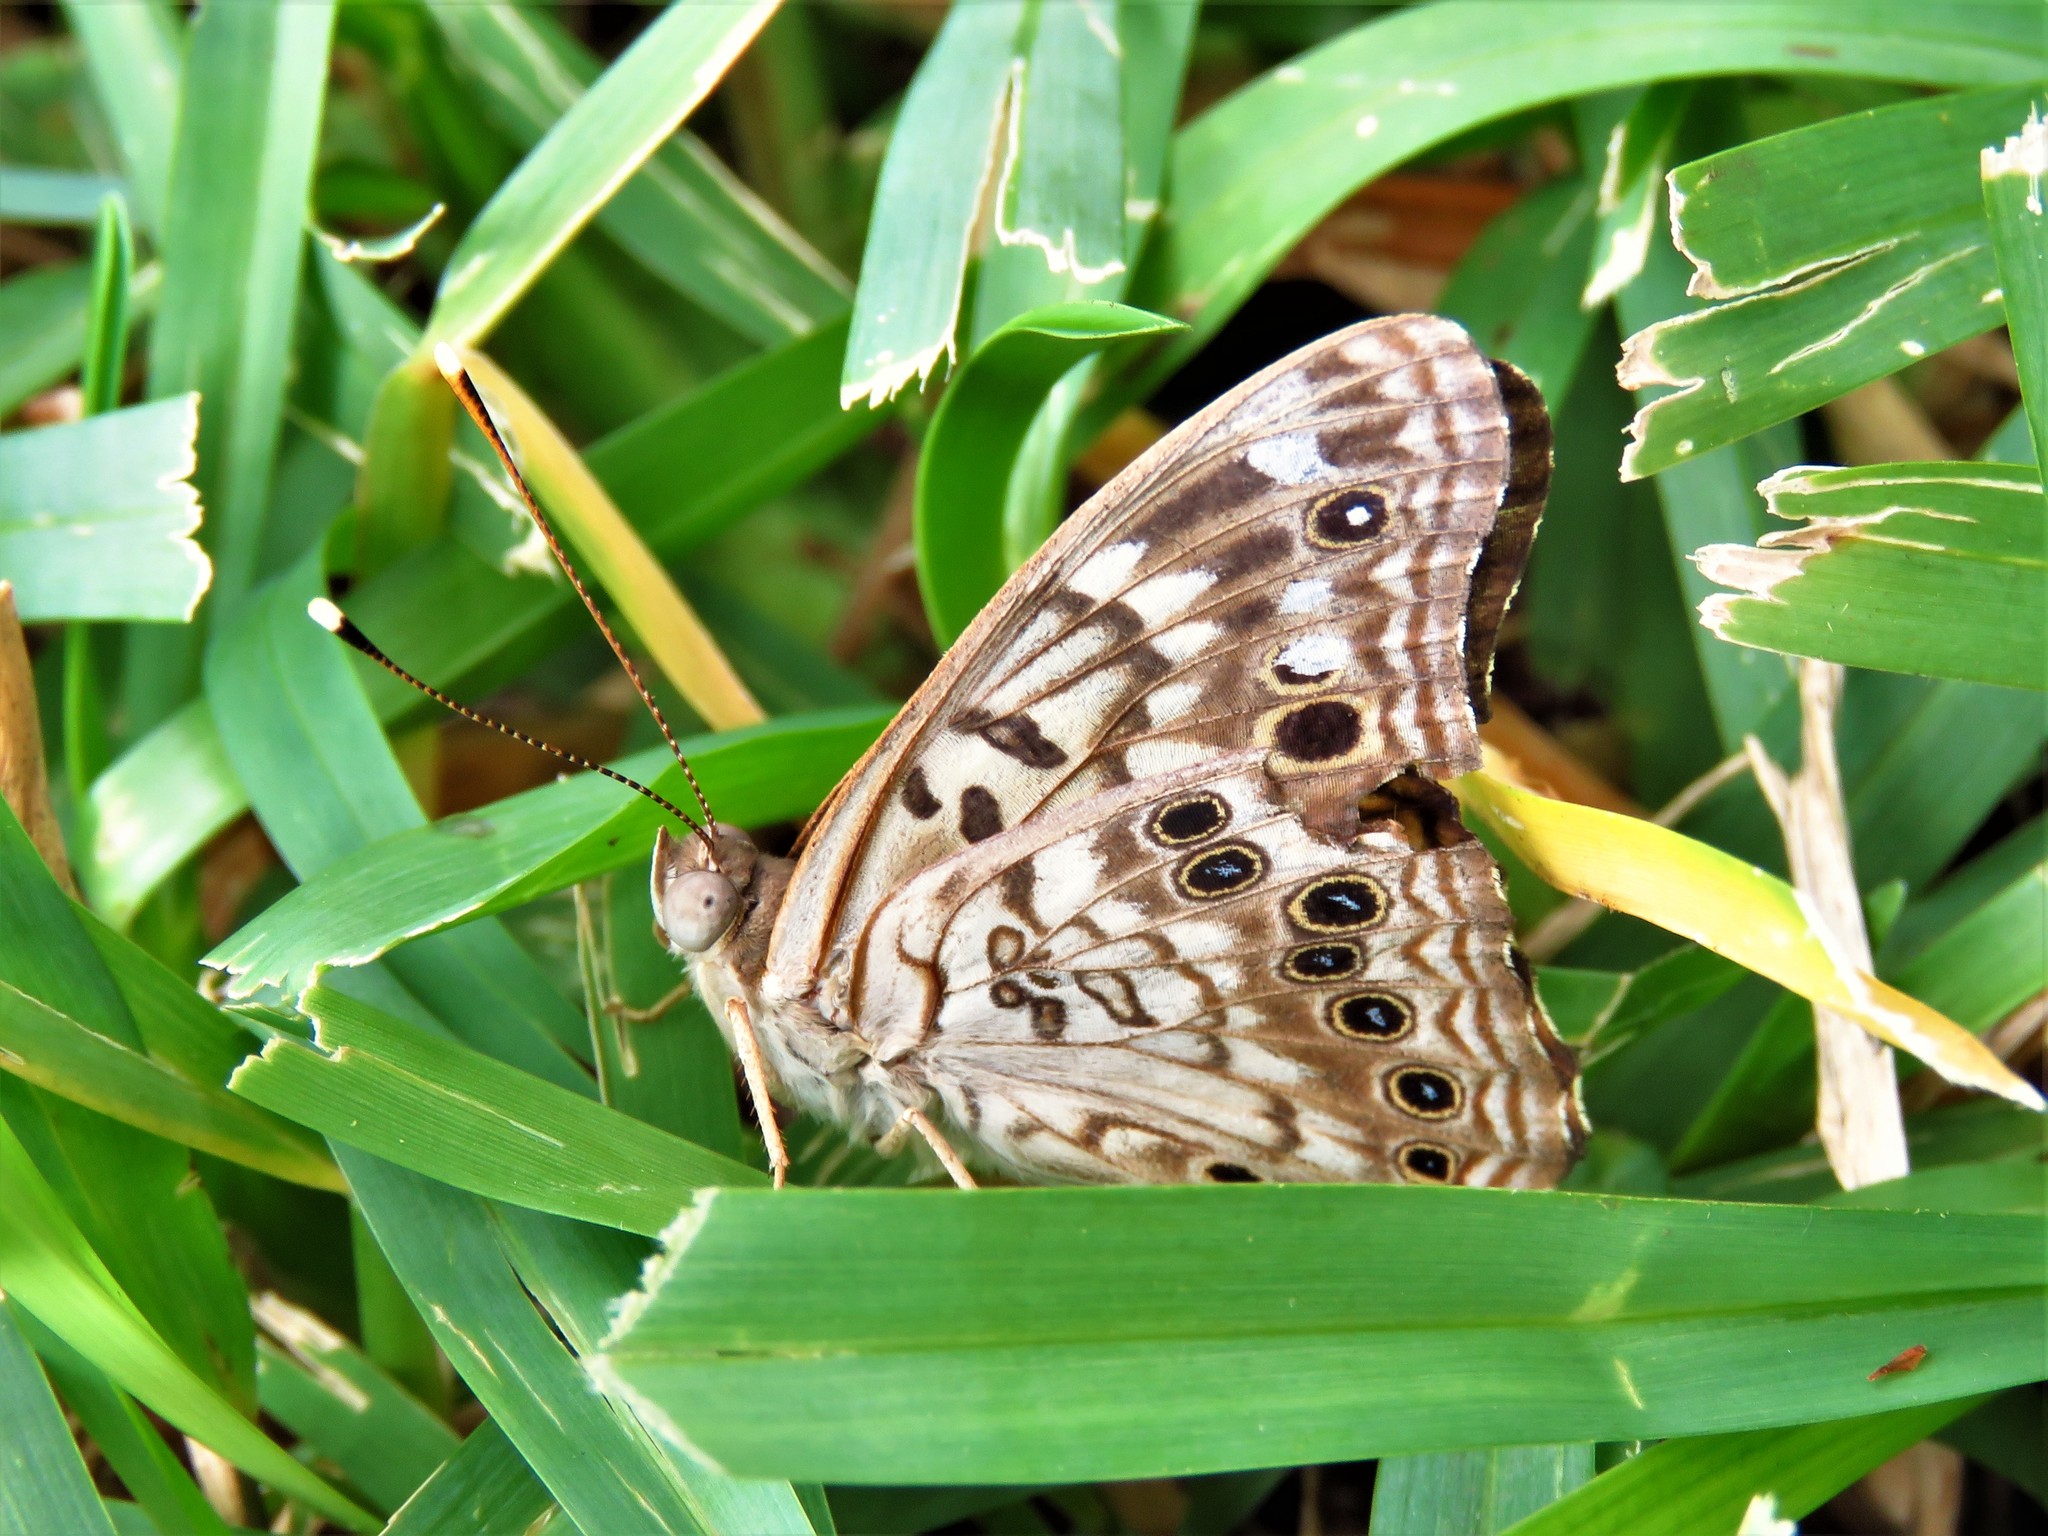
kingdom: Animalia
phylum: Arthropoda
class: Insecta
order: Lepidoptera
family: Nymphalidae
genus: Asterocampa
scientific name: Asterocampa celtis
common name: Hackberry emperor
